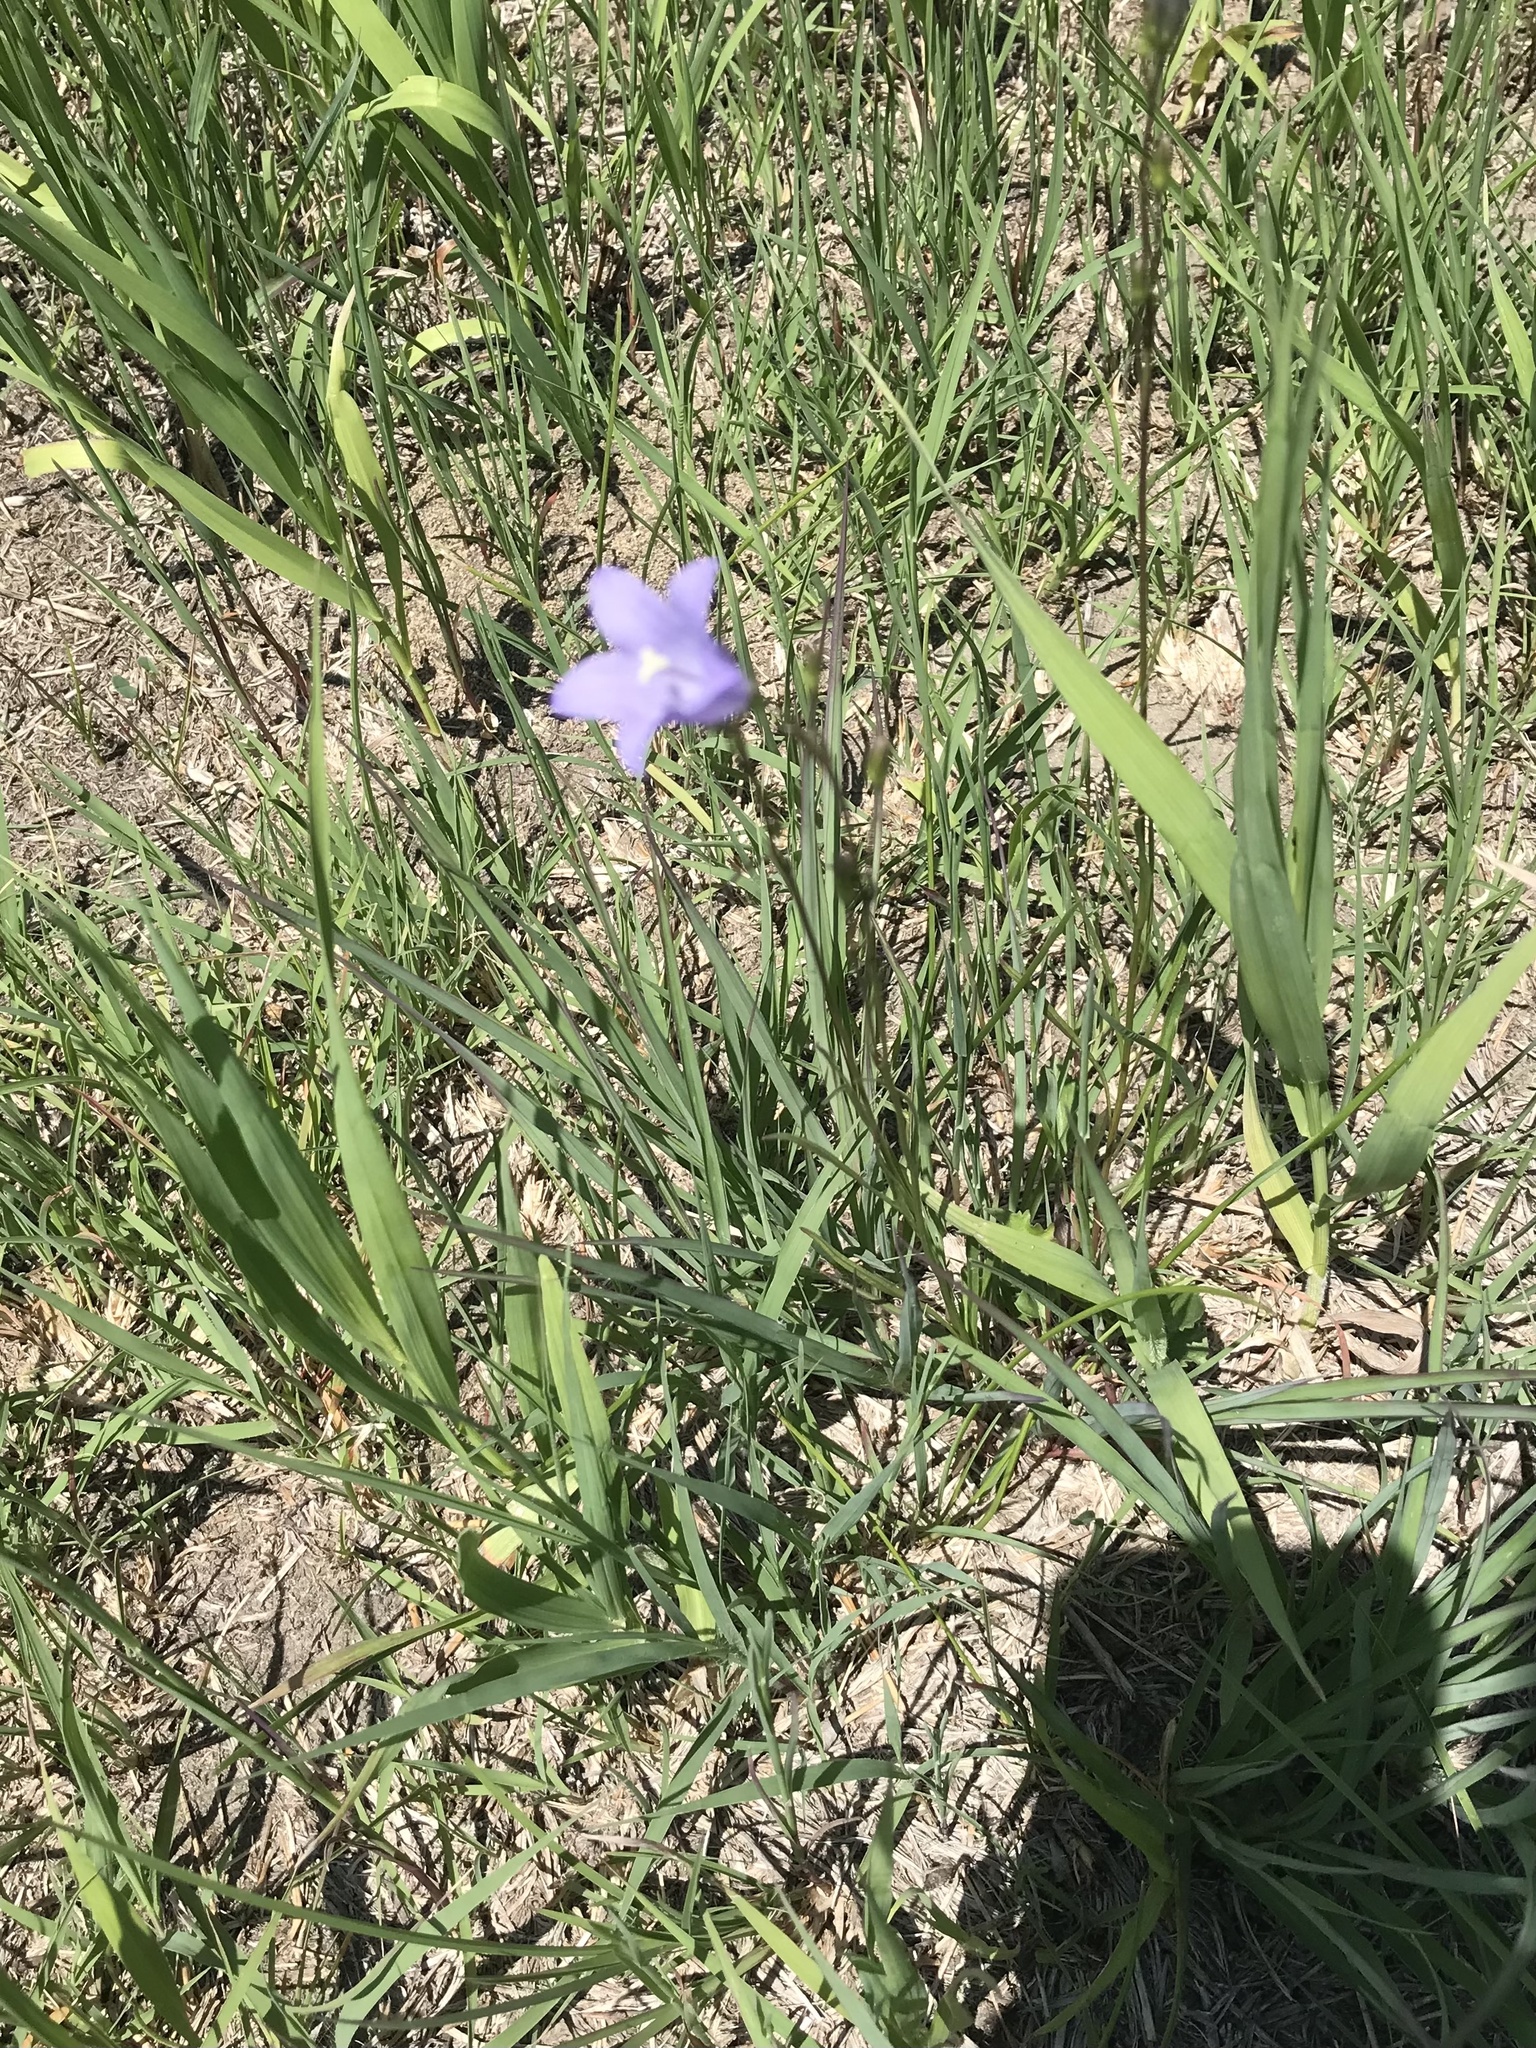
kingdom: Plantae
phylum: Tracheophyta
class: Magnoliopsida
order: Asterales
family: Campanulaceae
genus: Campanula
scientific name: Campanula intercedens
